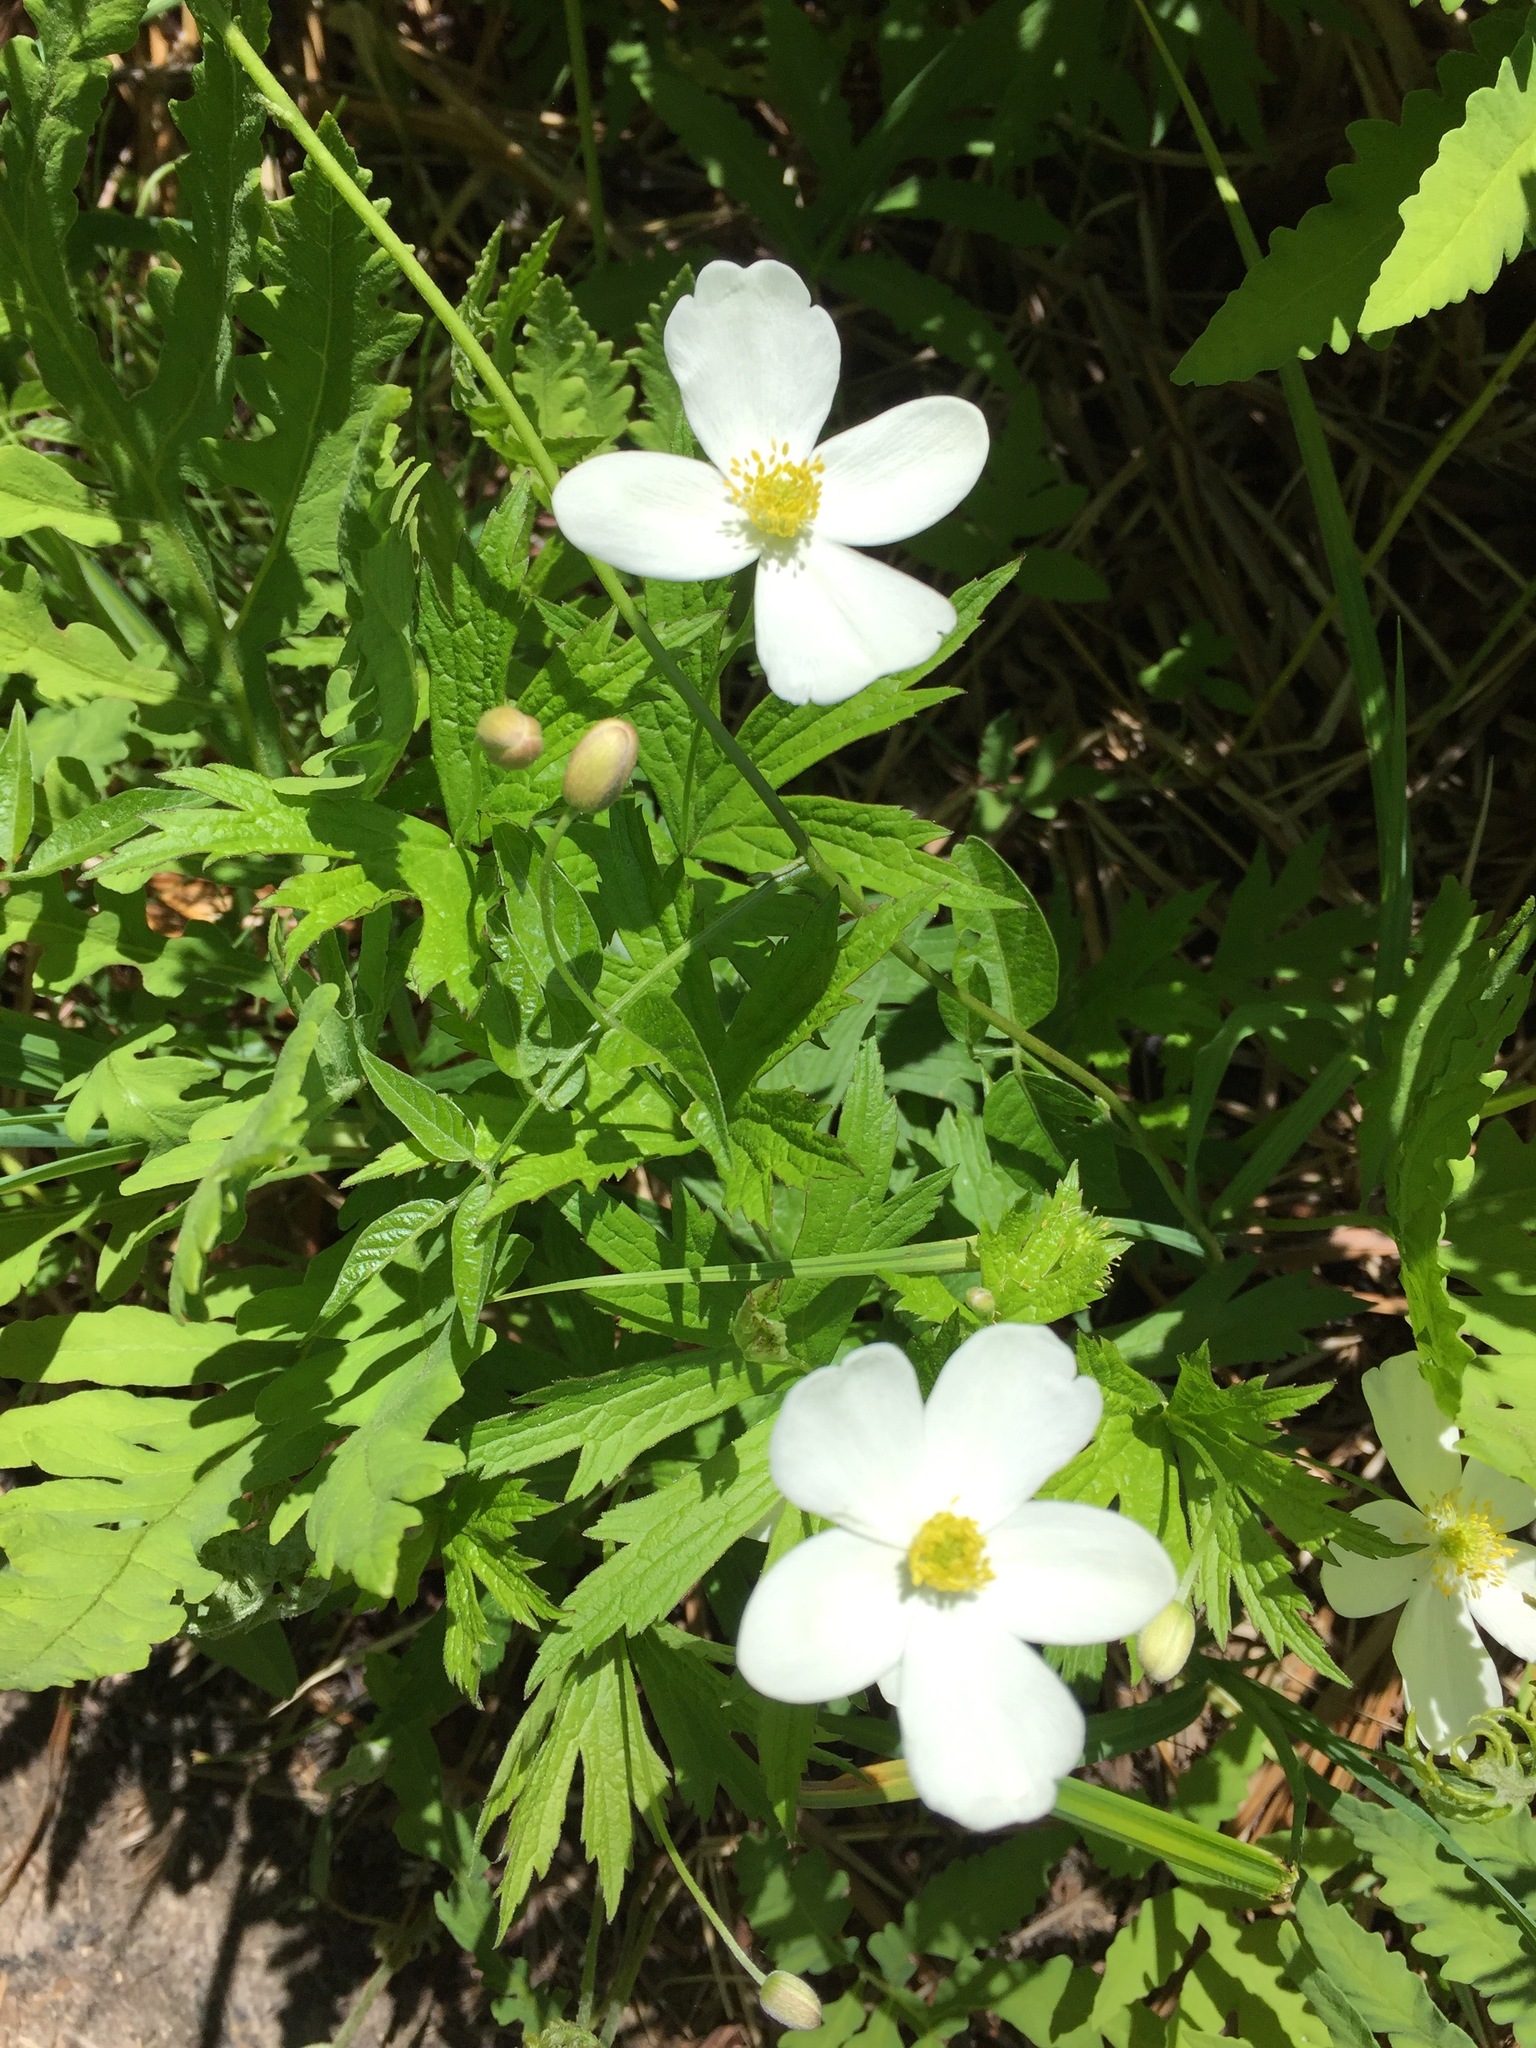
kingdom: Plantae
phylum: Tracheophyta
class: Magnoliopsida
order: Ranunculales
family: Ranunculaceae
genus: Anemonastrum
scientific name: Anemonastrum canadense
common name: Canada anemone
